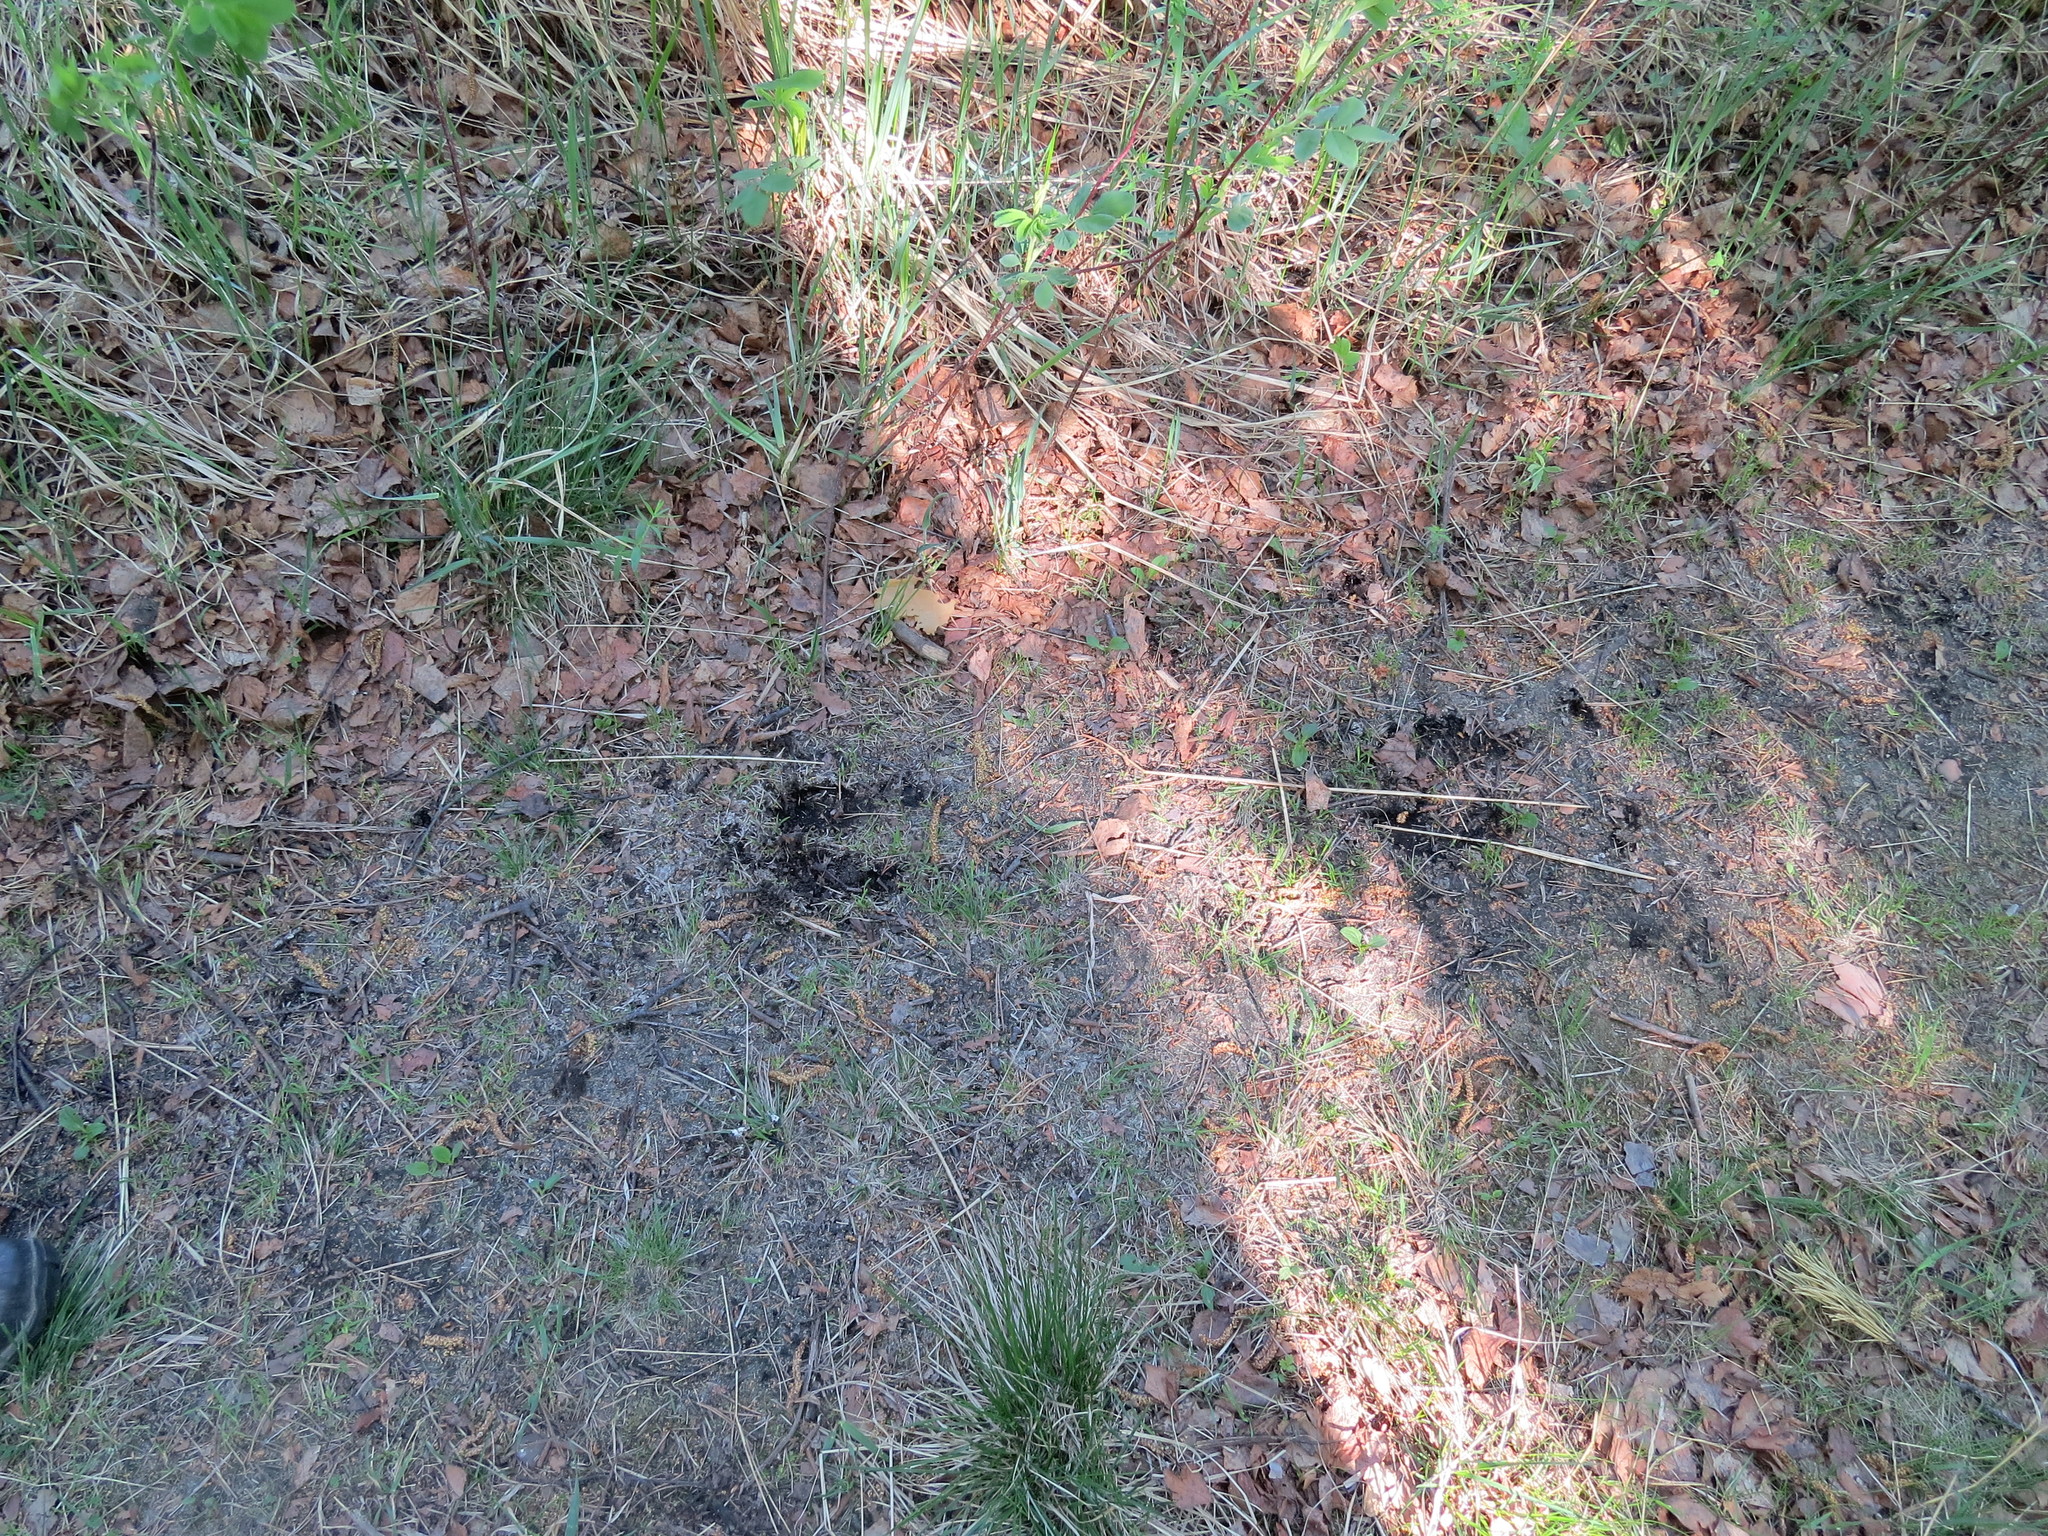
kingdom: Animalia
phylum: Chordata
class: Mammalia
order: Artiodactyla
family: Cervidae
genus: Alces
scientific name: Alces alces
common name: Moose
